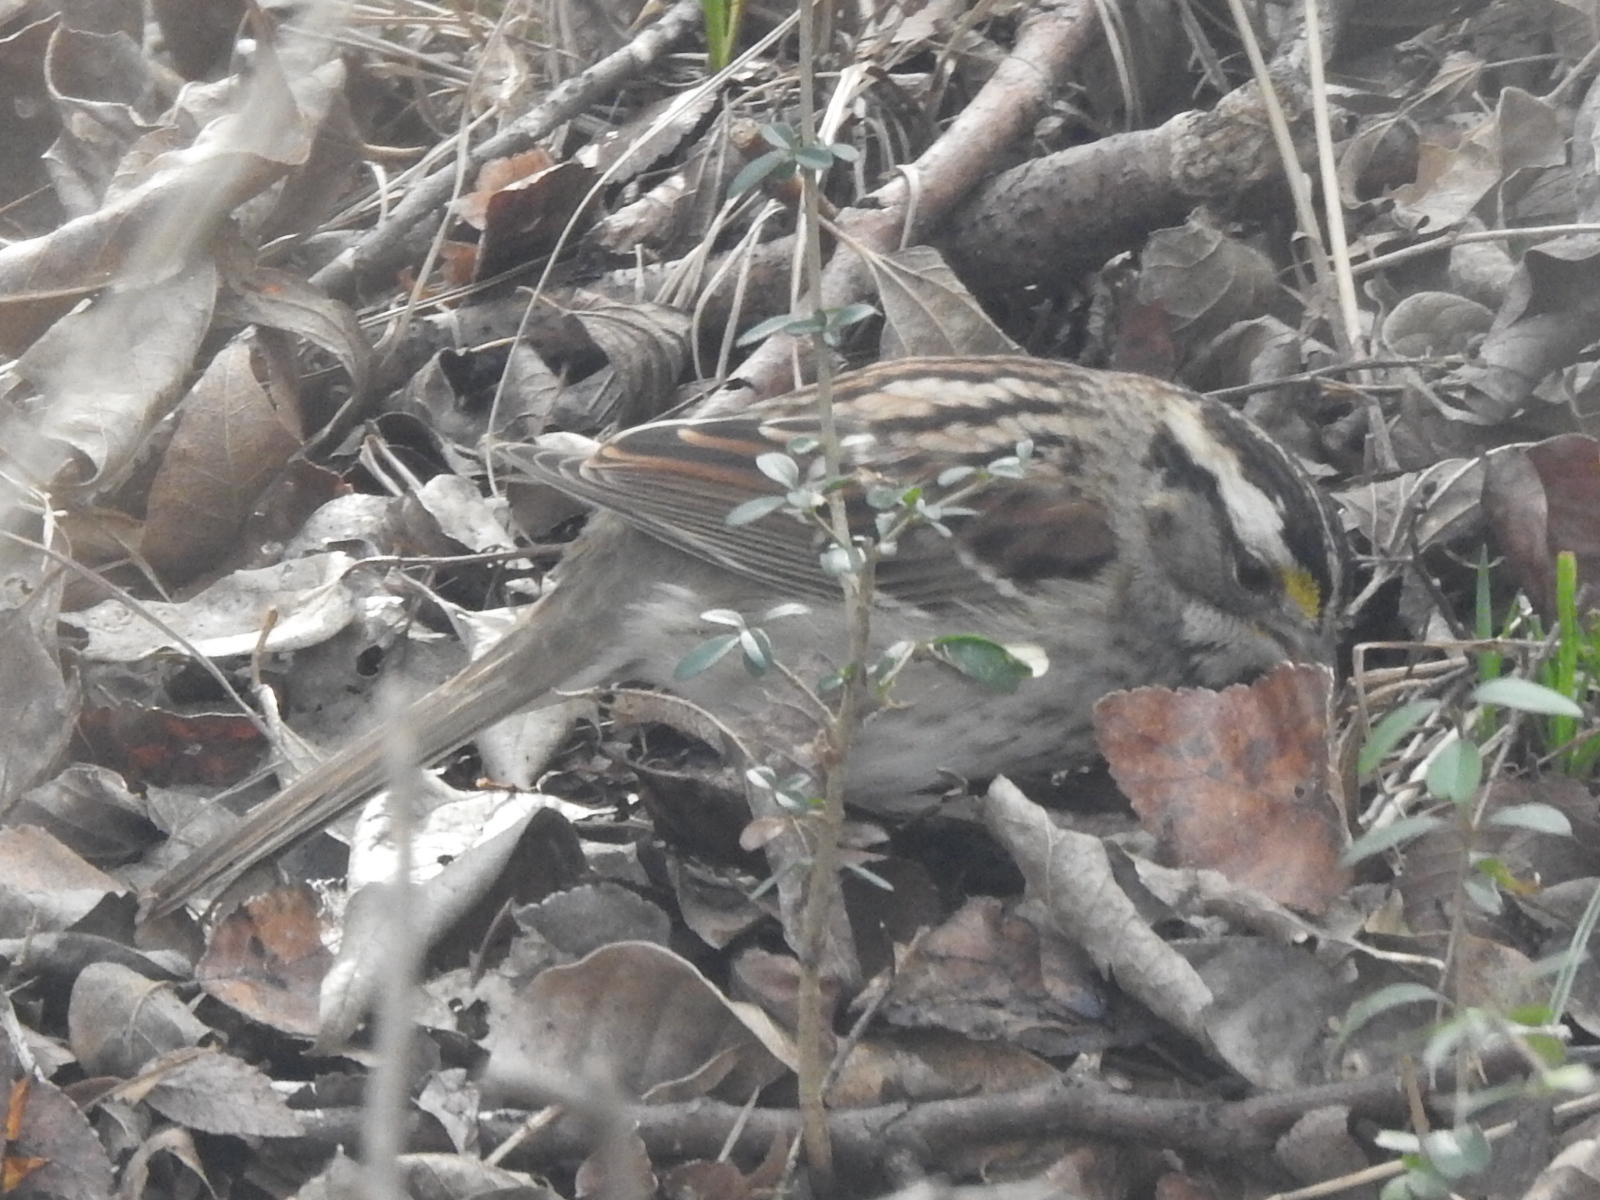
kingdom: Animalia
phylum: Chordata
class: Aves
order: Passeriformes
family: Passerellidae
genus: Zonotrichia
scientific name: Zonotrichia albicollis
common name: White-throated sparrow
